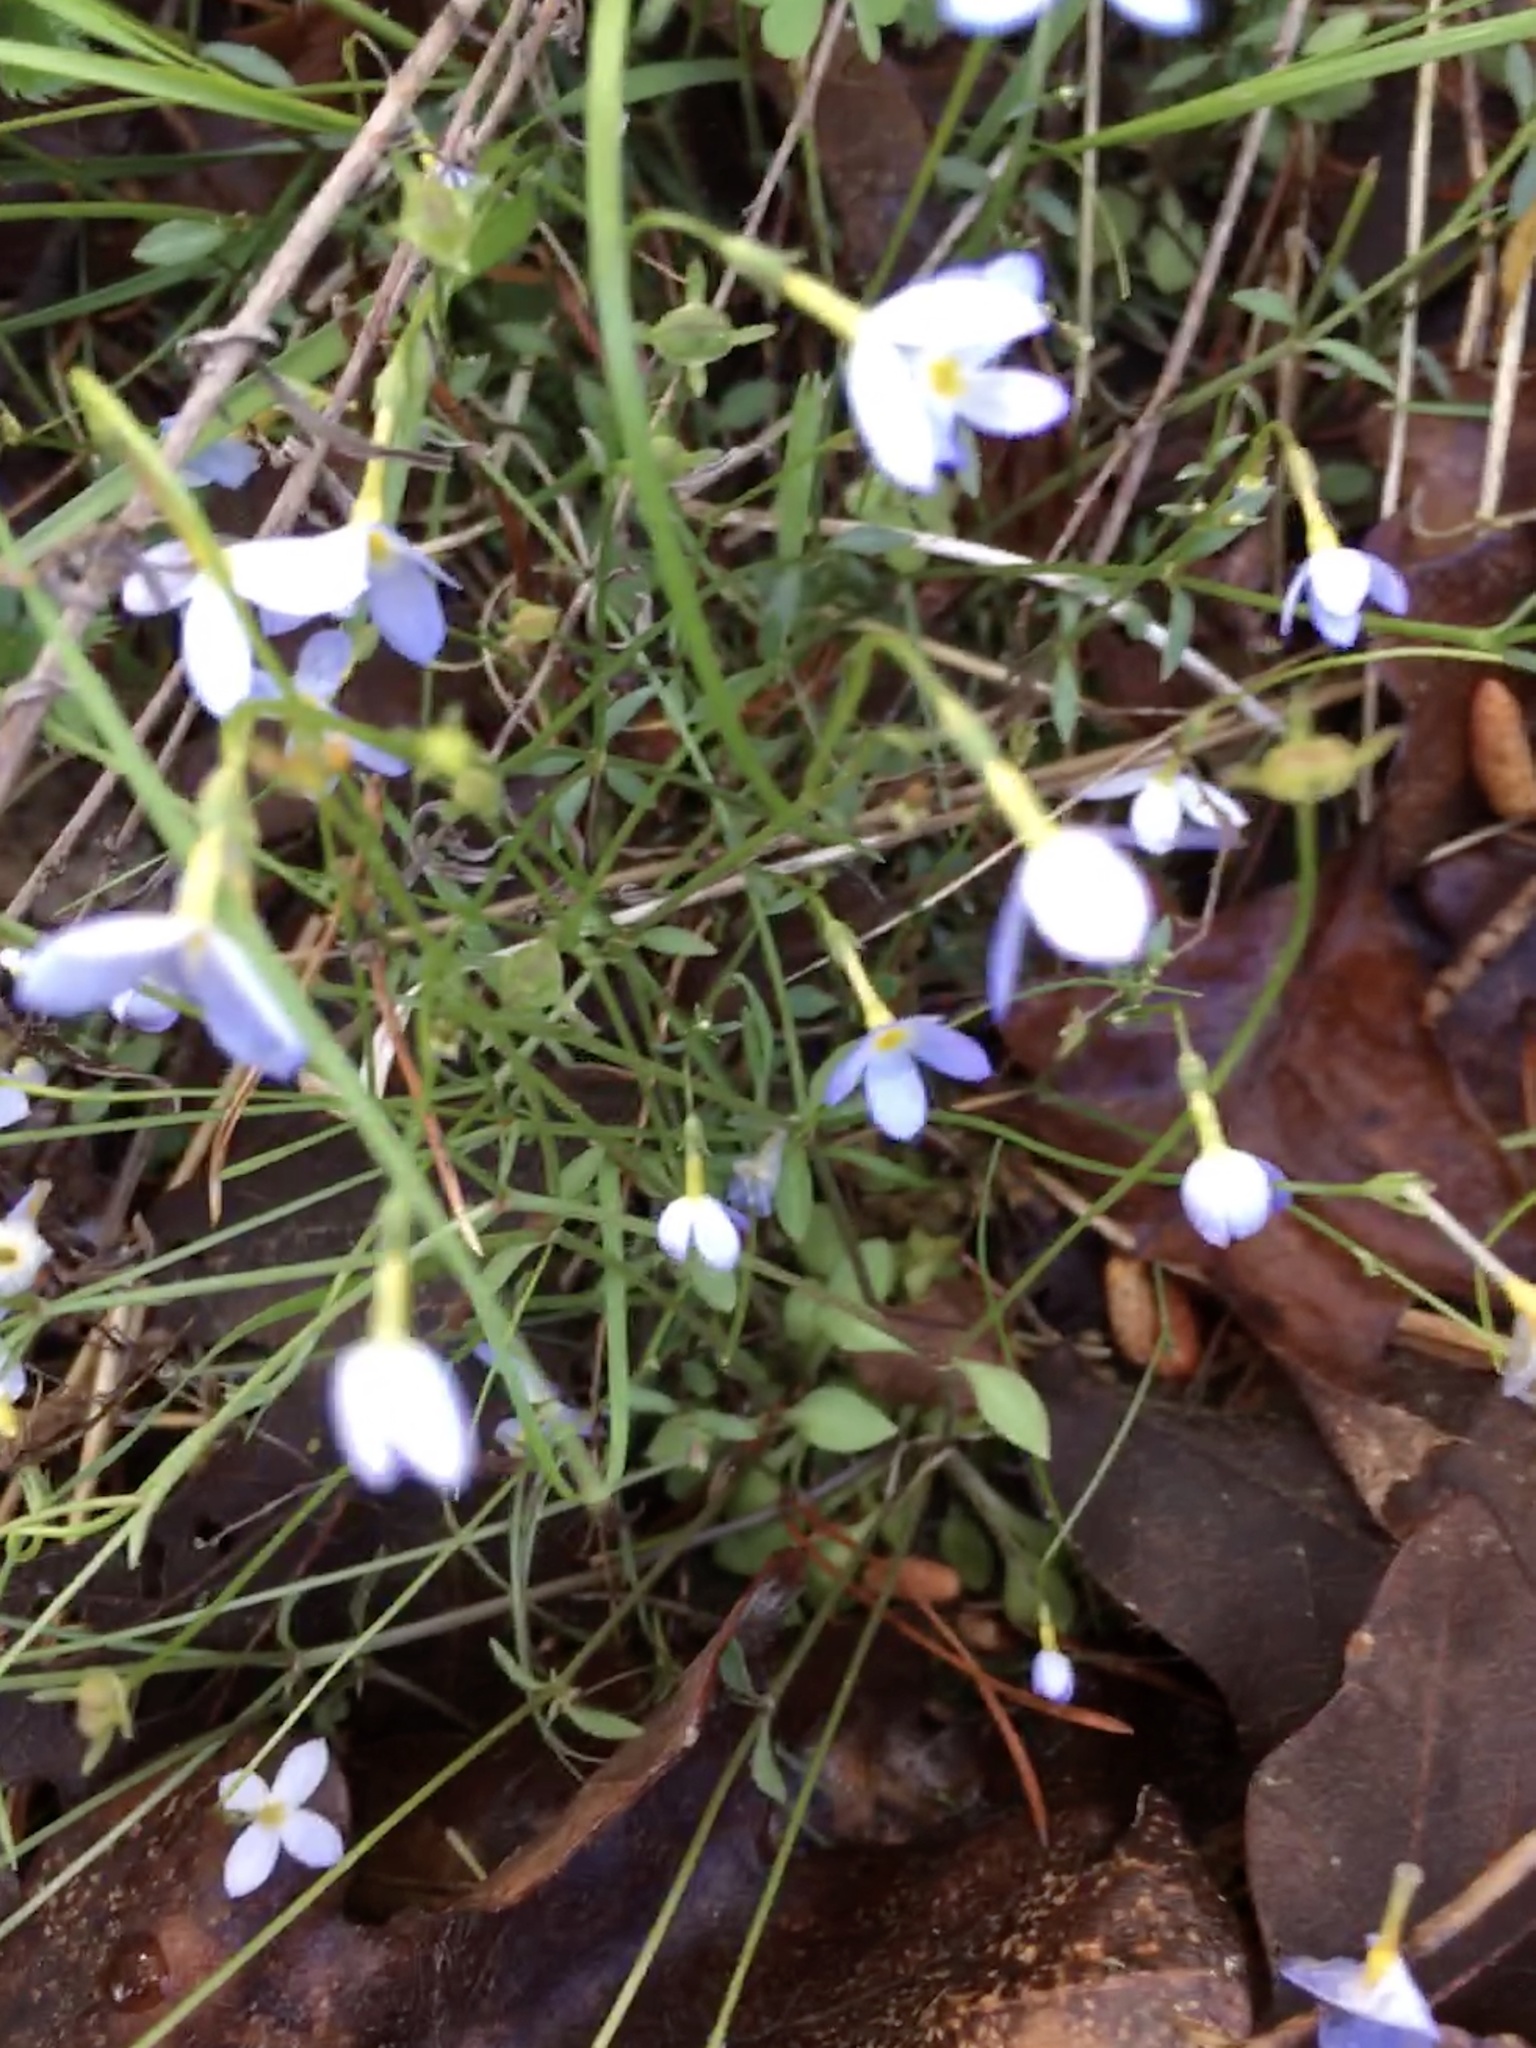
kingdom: Plantae
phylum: Tracheophyta
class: Magnoliopsida
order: Gentianales
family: Rubiaceae
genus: Houstonia
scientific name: Houstonia caerulea
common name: Bluets
